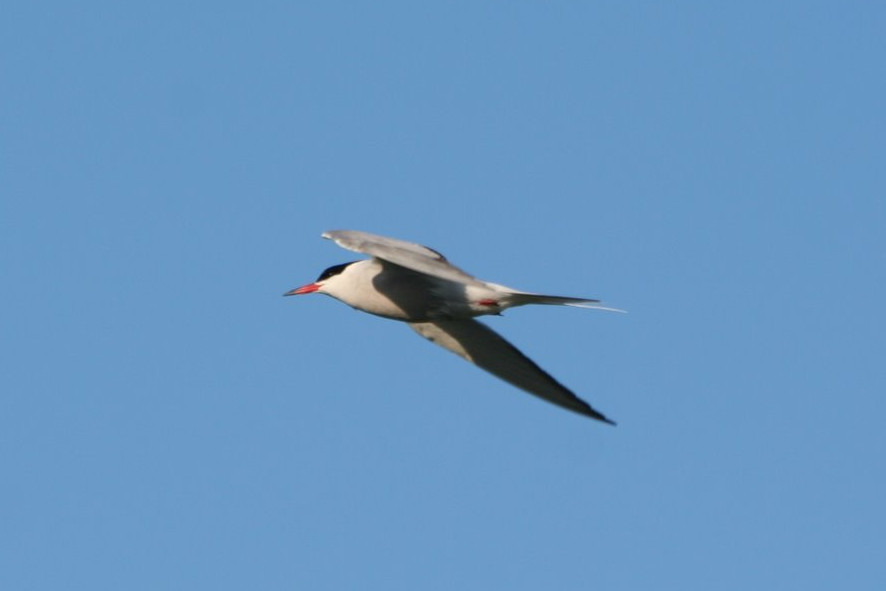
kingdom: Animalia
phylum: Chordata
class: Aves
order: Charadriiformes
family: Laridae
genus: Sterna
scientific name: Sterna hirundo
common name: Common tern
